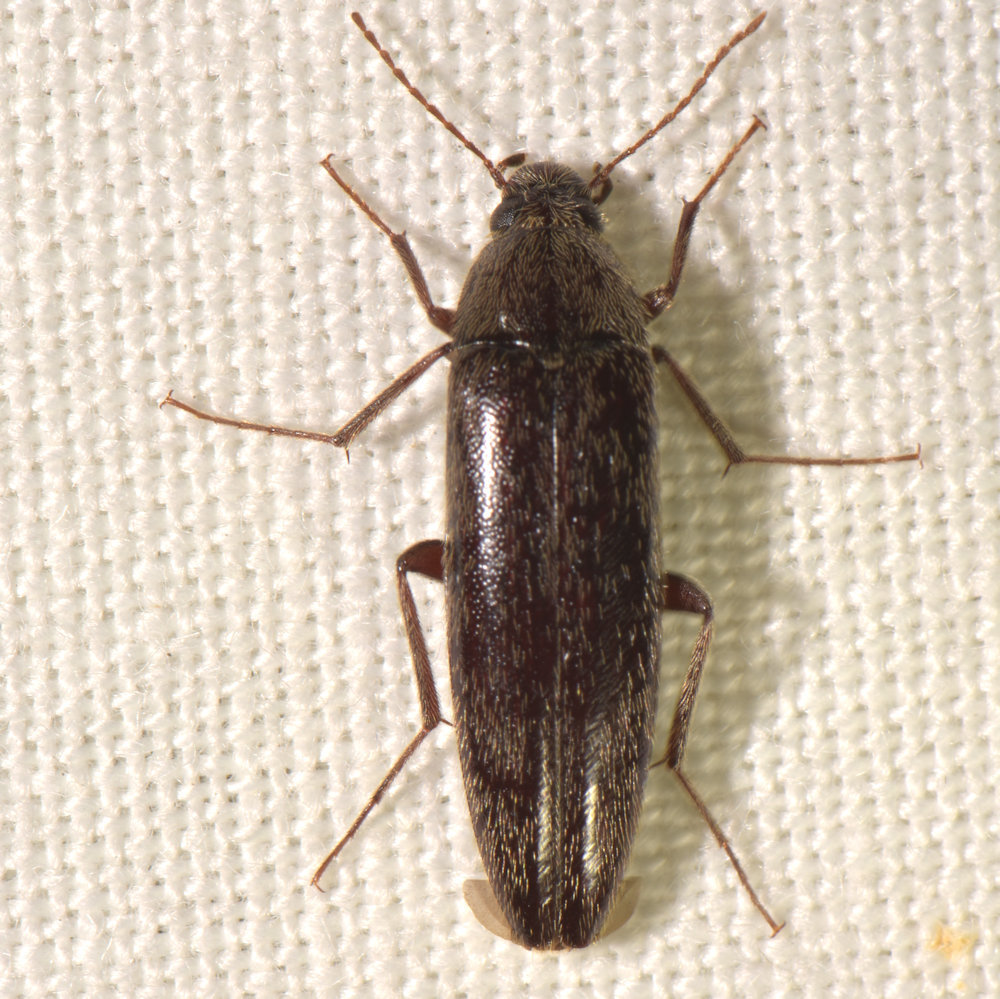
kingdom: Animalia
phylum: Arthropoda
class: Insecta
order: Coleoptera
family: Synchroidae
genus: Synchroa
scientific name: Synchroa punctata
